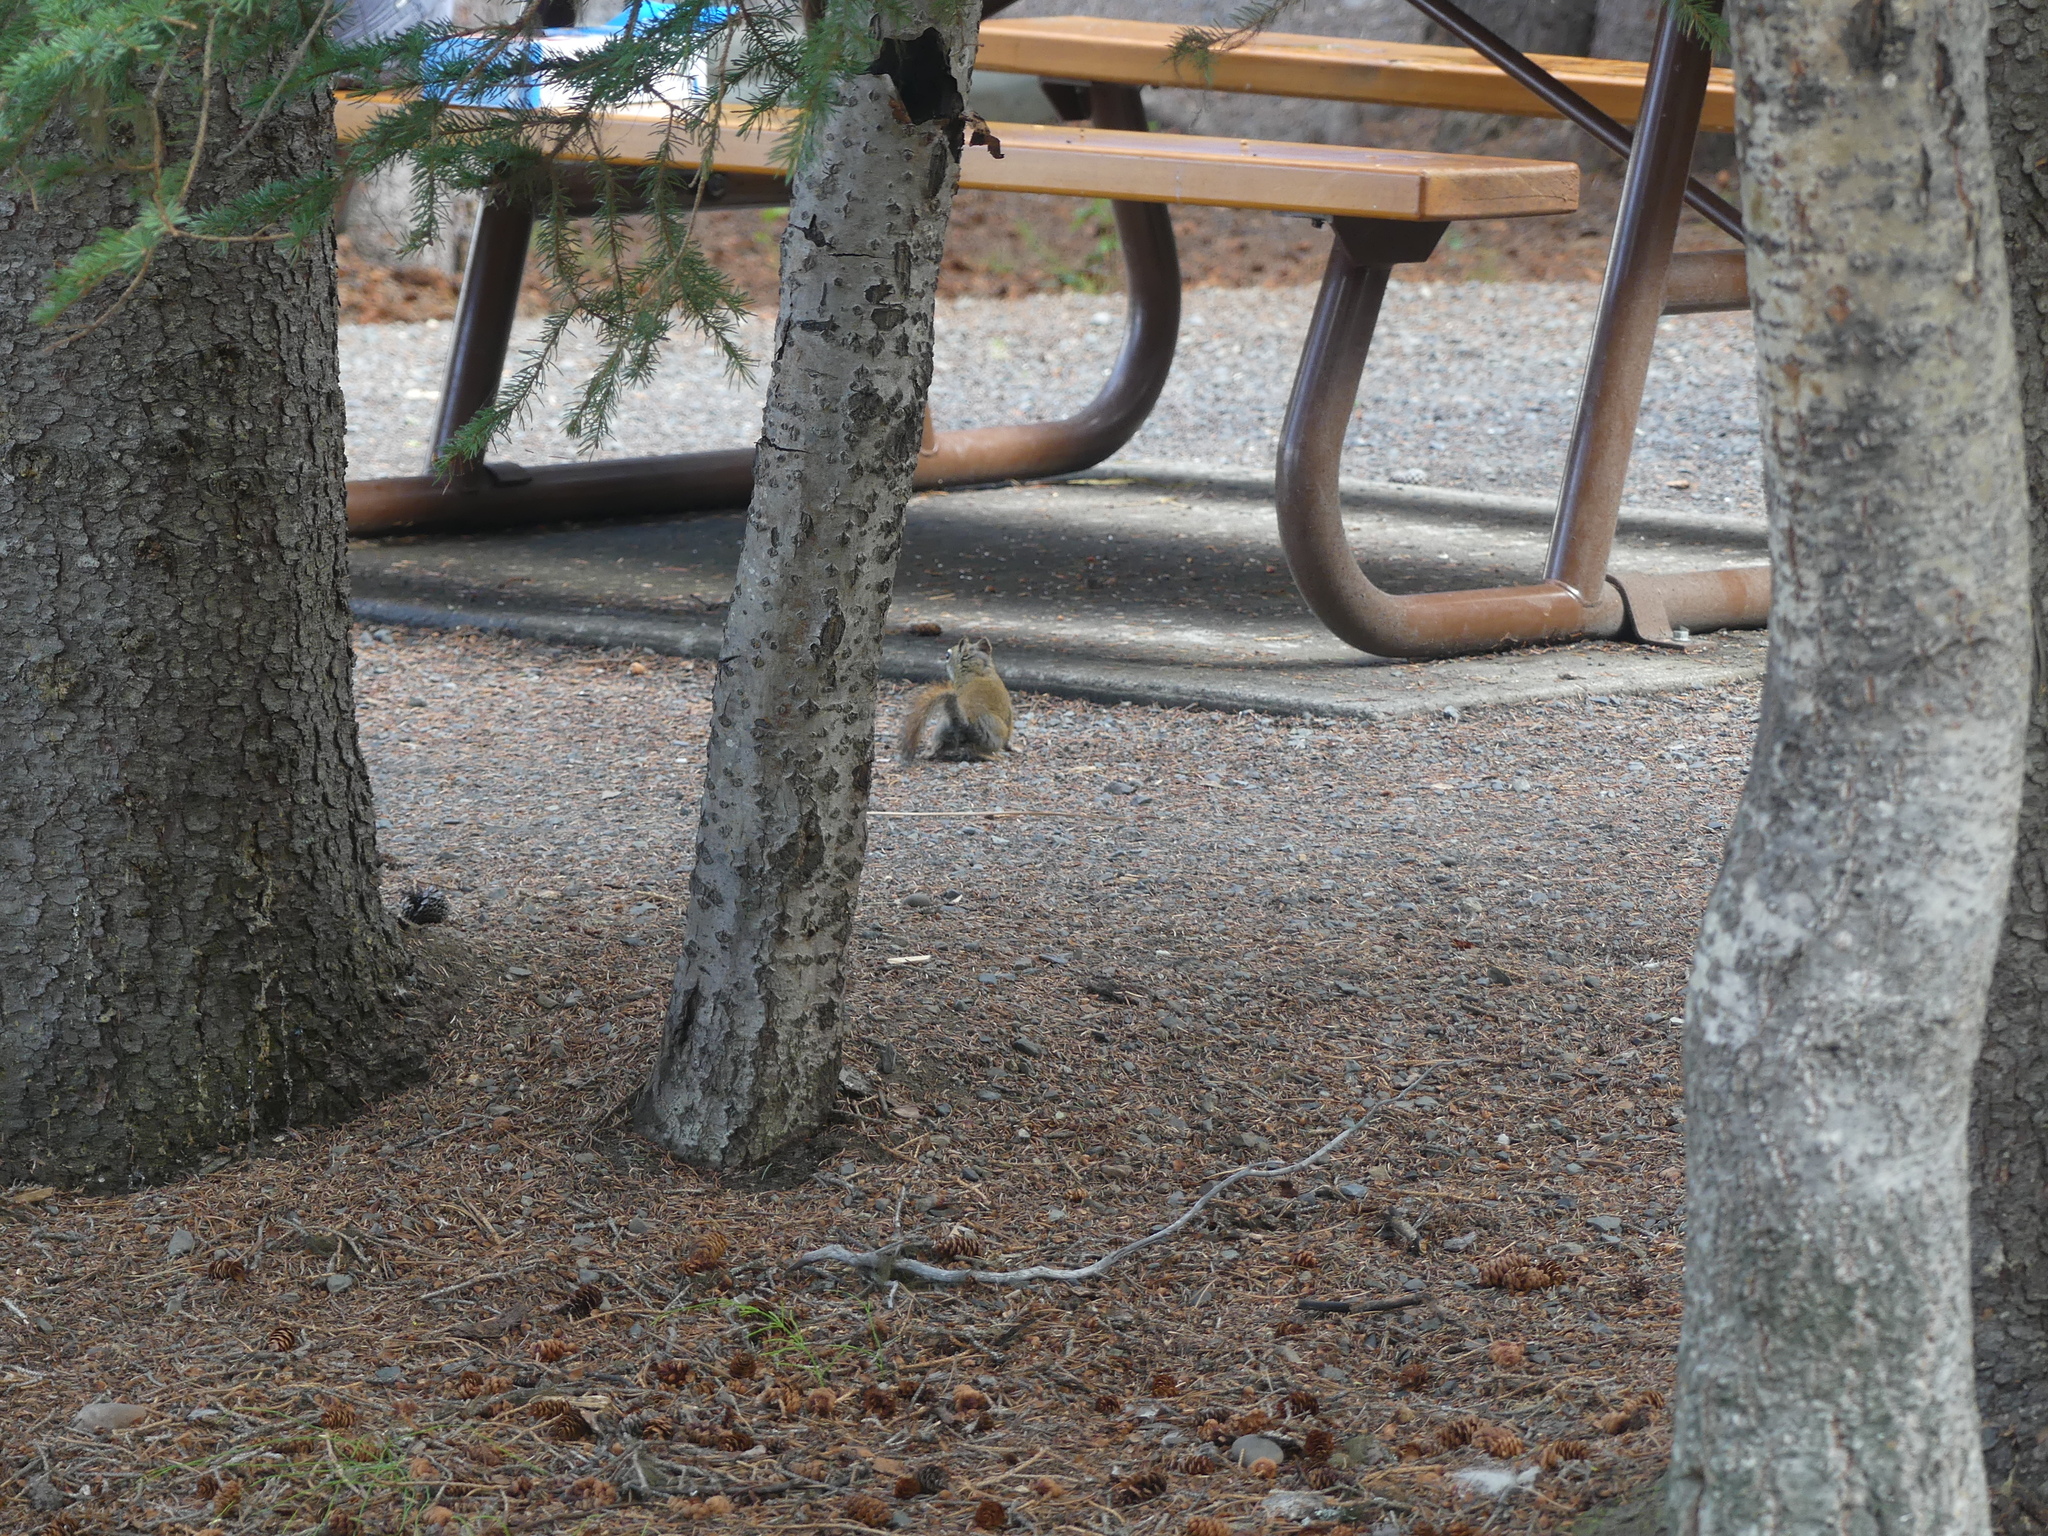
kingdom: Animalia
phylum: Chordata
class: Mammalia
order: Rodentia
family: Sciuridae
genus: Tamiasciurus
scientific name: Tamiasciurus hudsonicus
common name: Red squirrel
